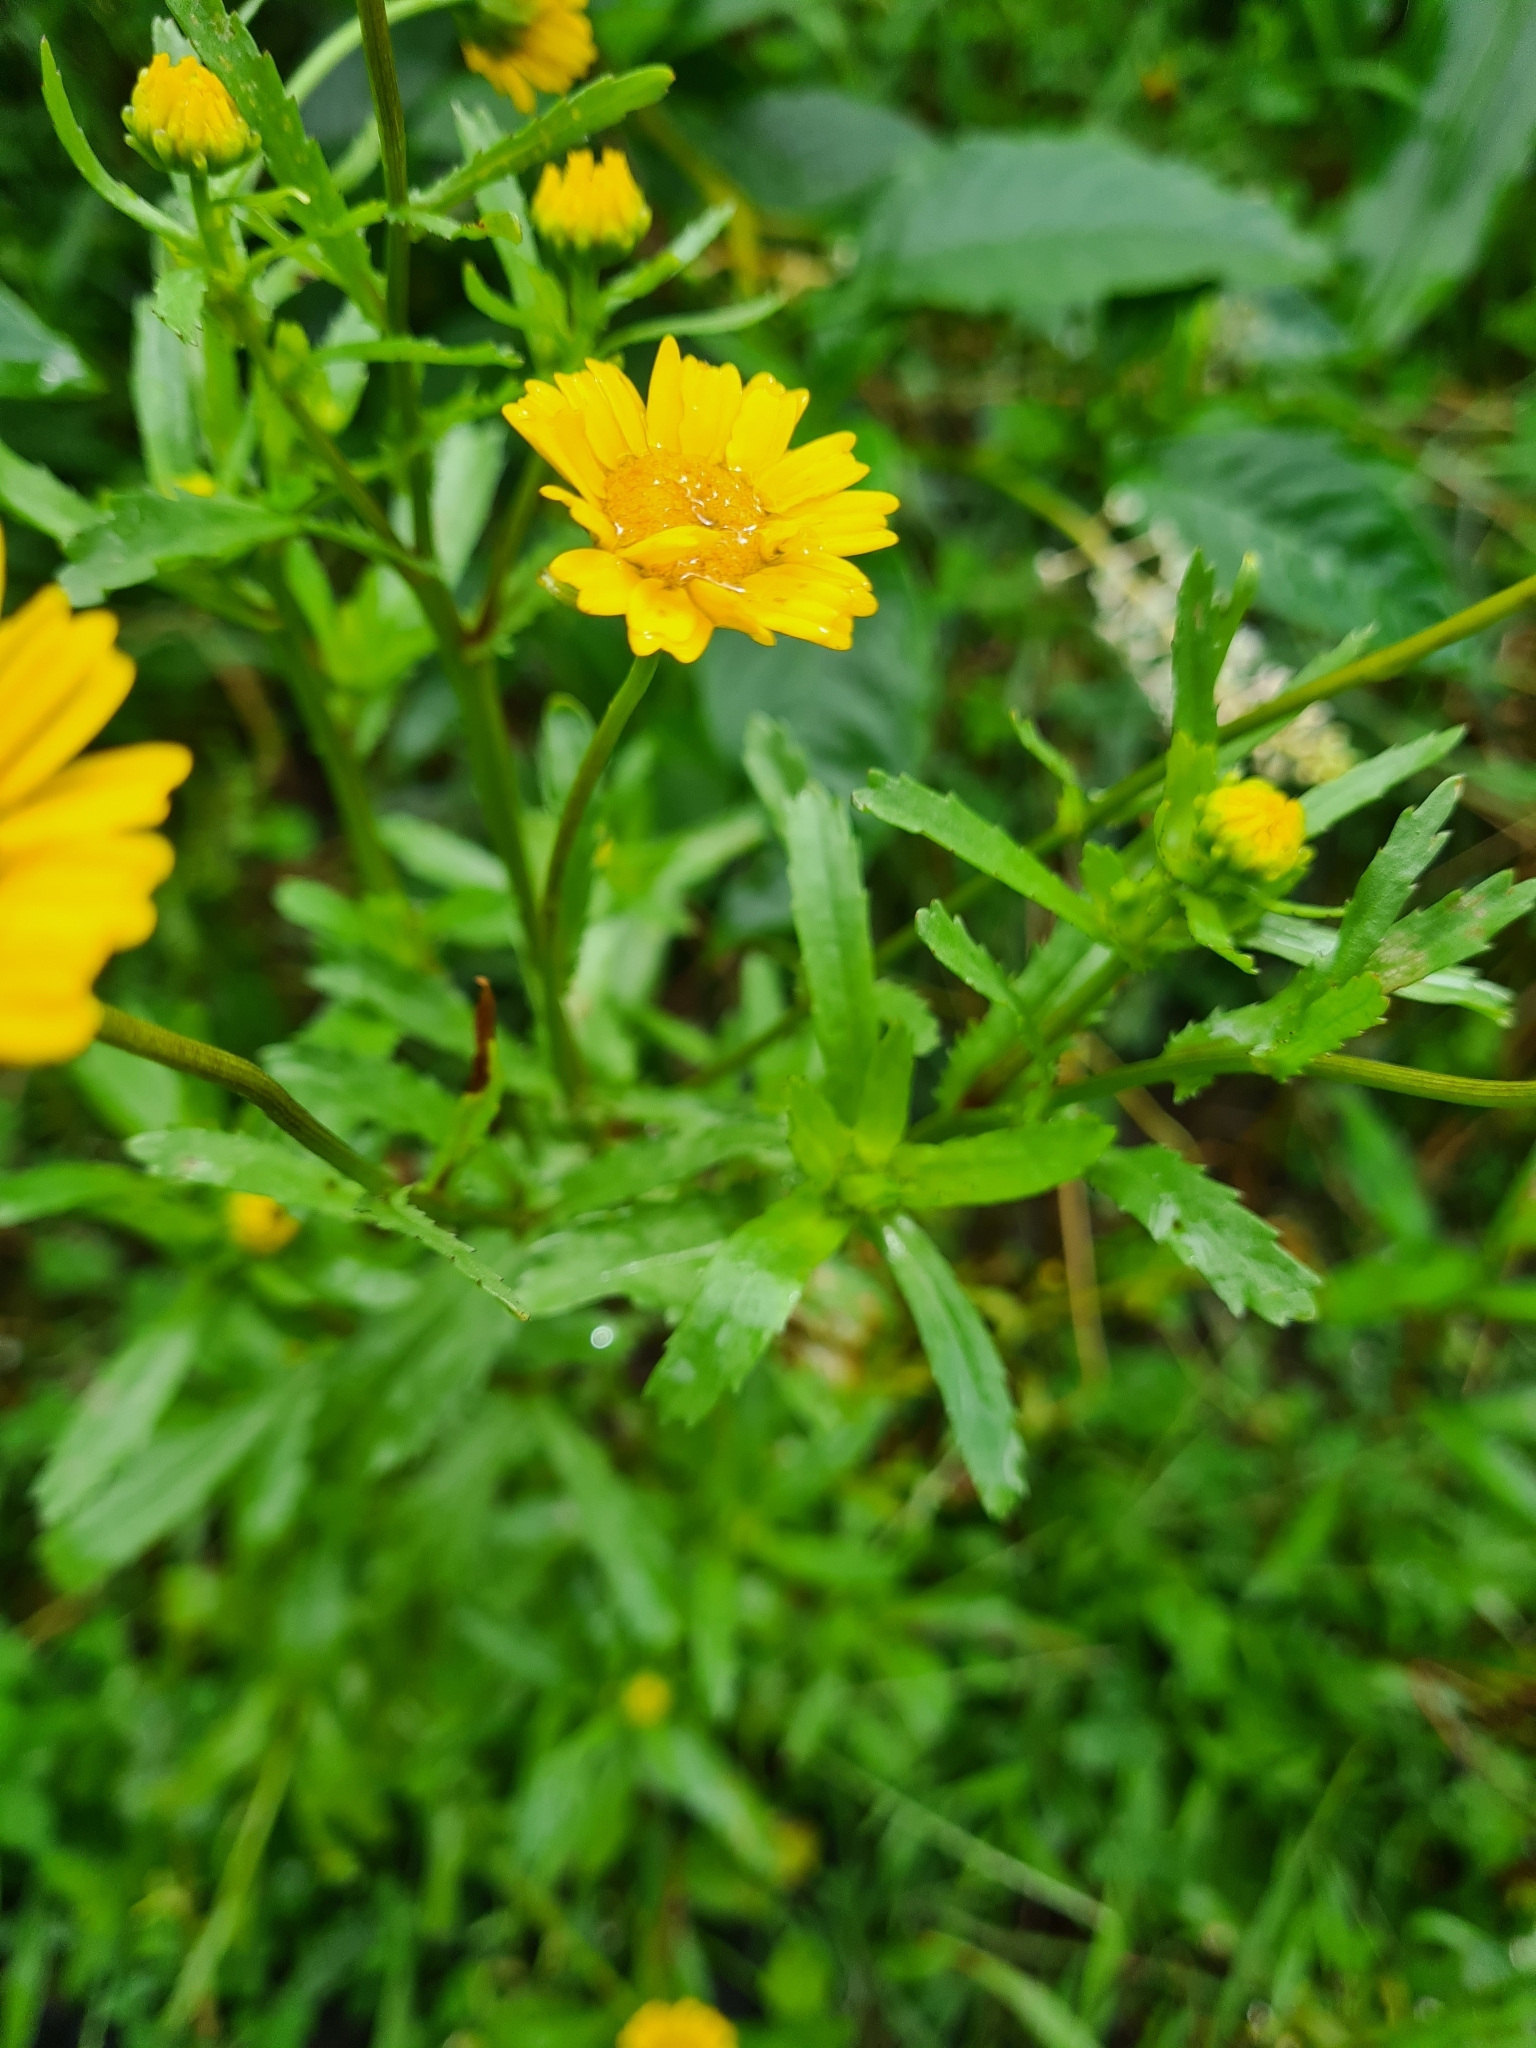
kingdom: Plantae
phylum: Tracheophyta
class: Magnoliopsida
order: Asterales
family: Asteraceae
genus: Coleostephus
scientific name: Coleostephus myconis
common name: Mediterranean marigold
